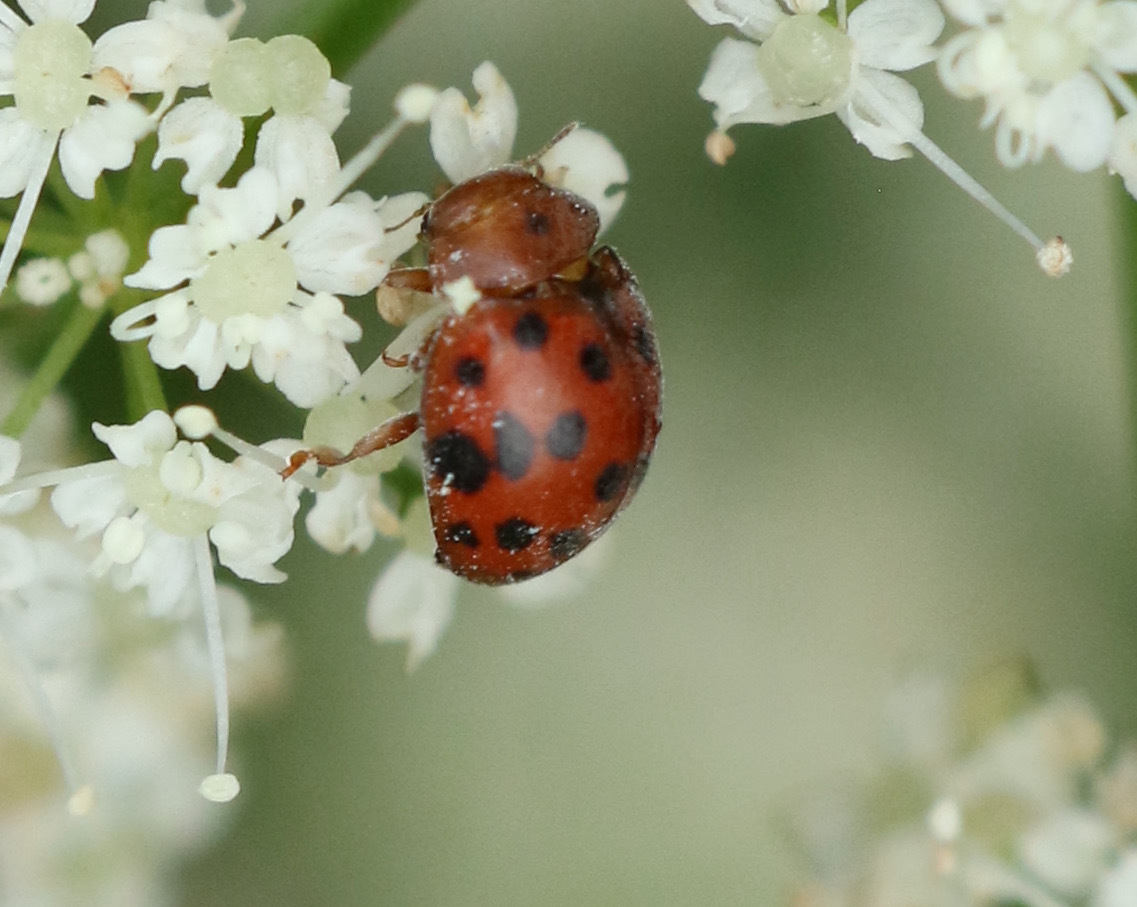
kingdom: Animalia
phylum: Arthropoda
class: Insecta
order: Coleoptera
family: Coccinellidae
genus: Subcoccinella
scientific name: Subcoccinella vigintiquatuorpunctata
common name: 24-spot ladybird
